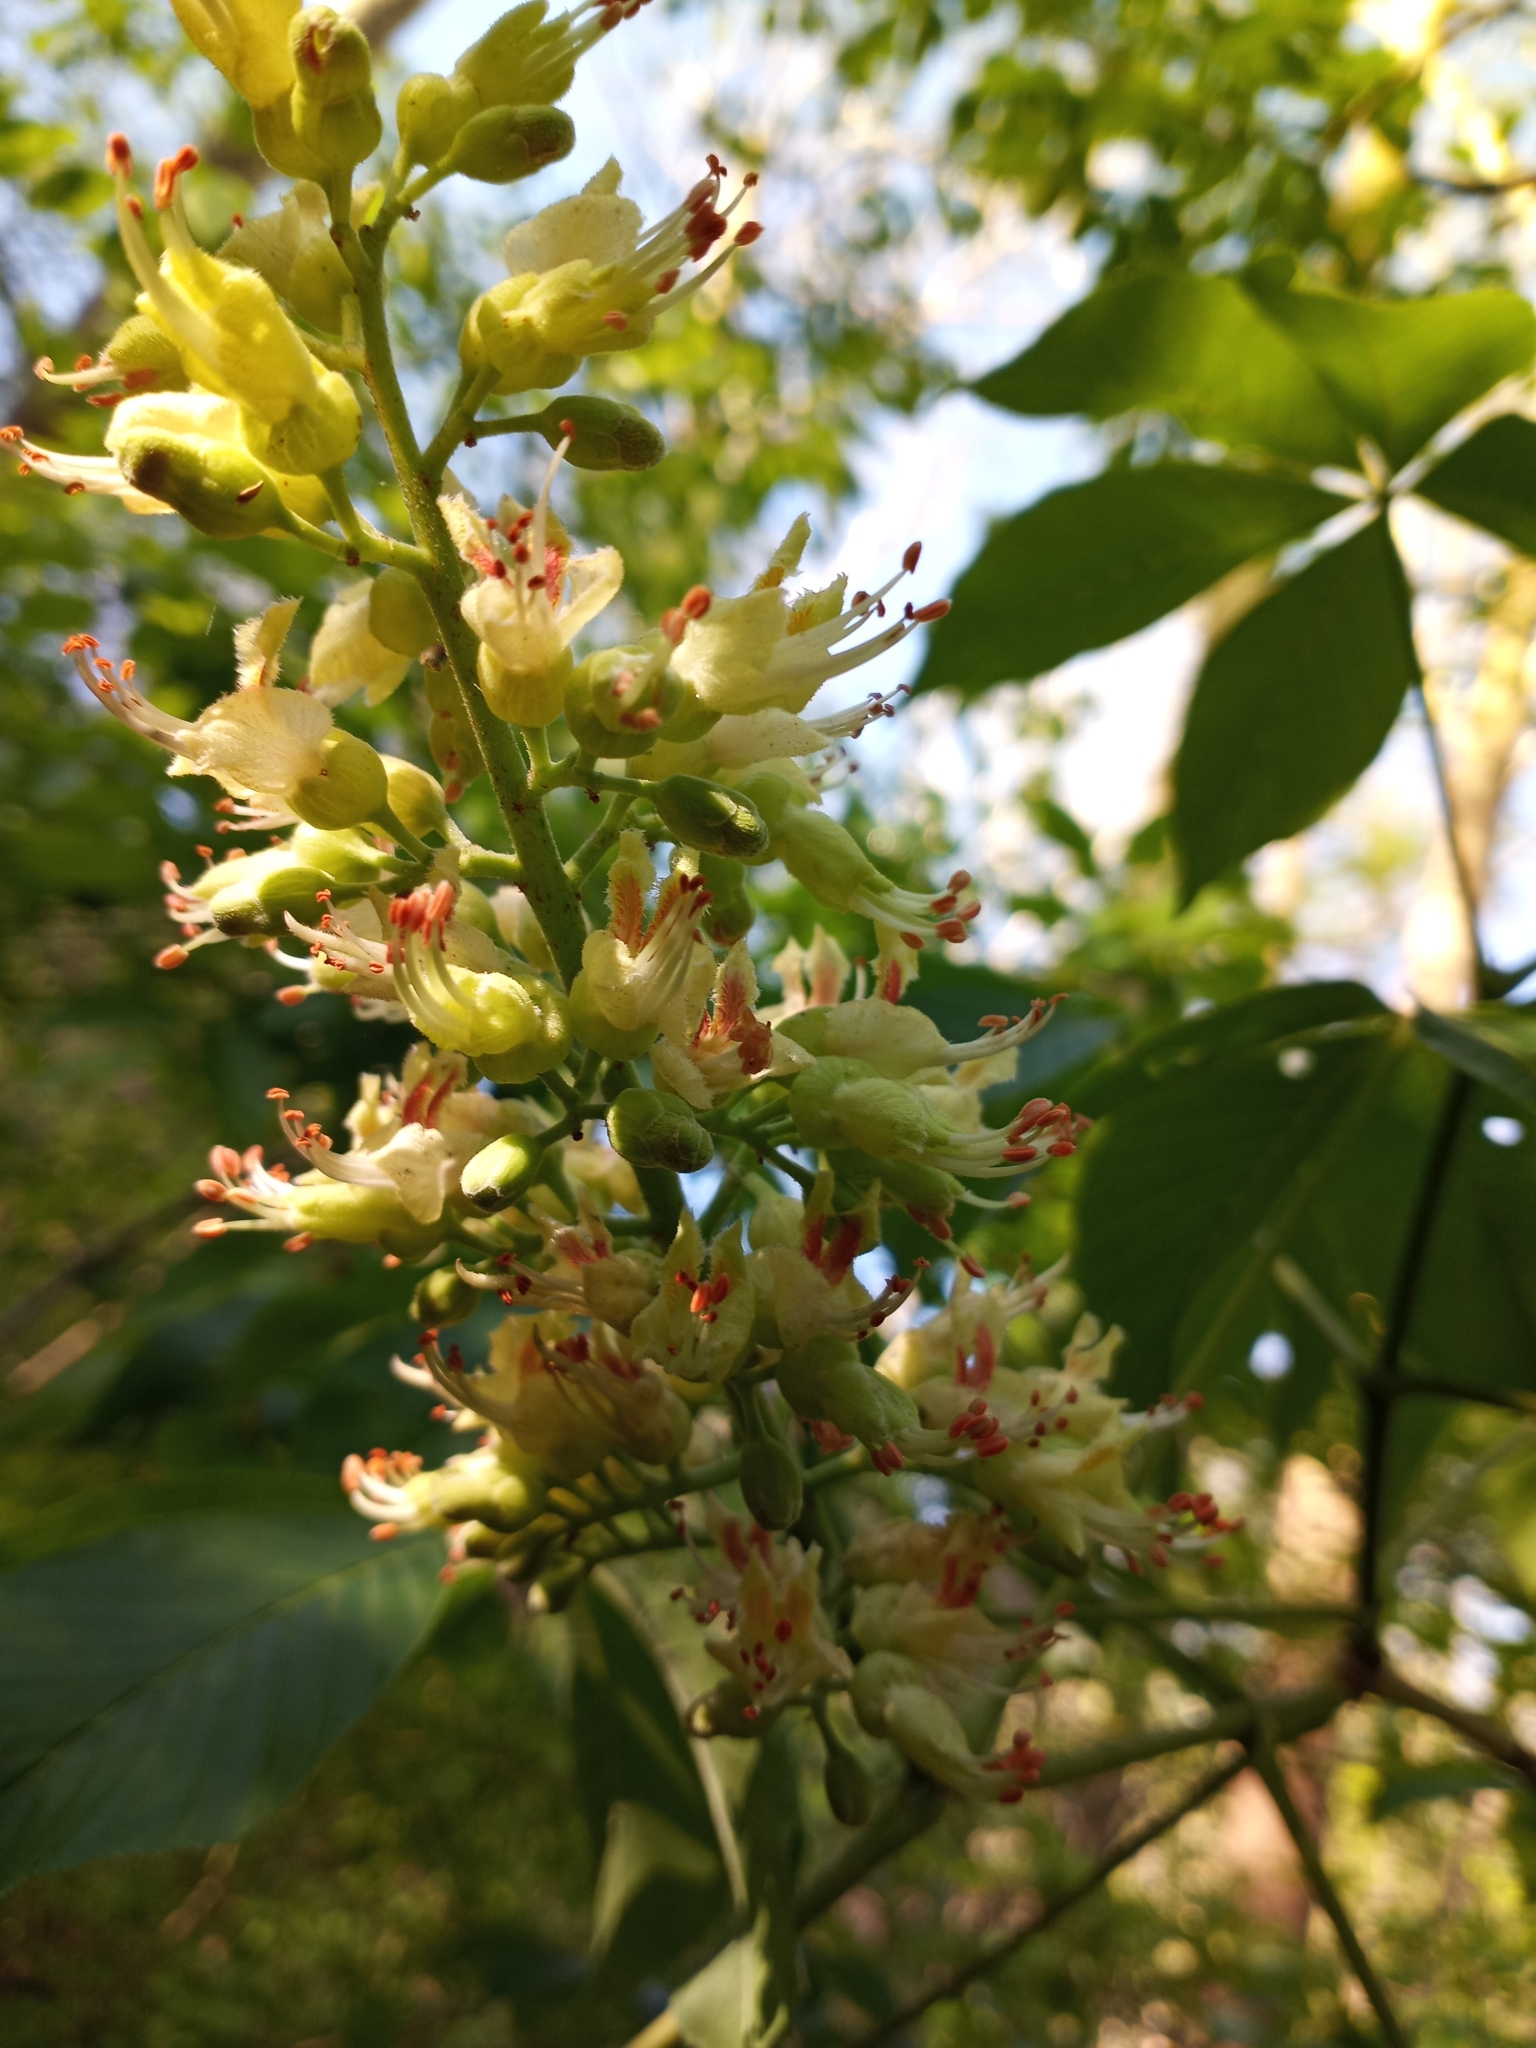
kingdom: Plantae
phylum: Tracheophyta
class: Magnoliopsida
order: Sapindales
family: Sapindaceae
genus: Aesculus
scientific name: Aesculus glabra
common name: Ohio buckeye
